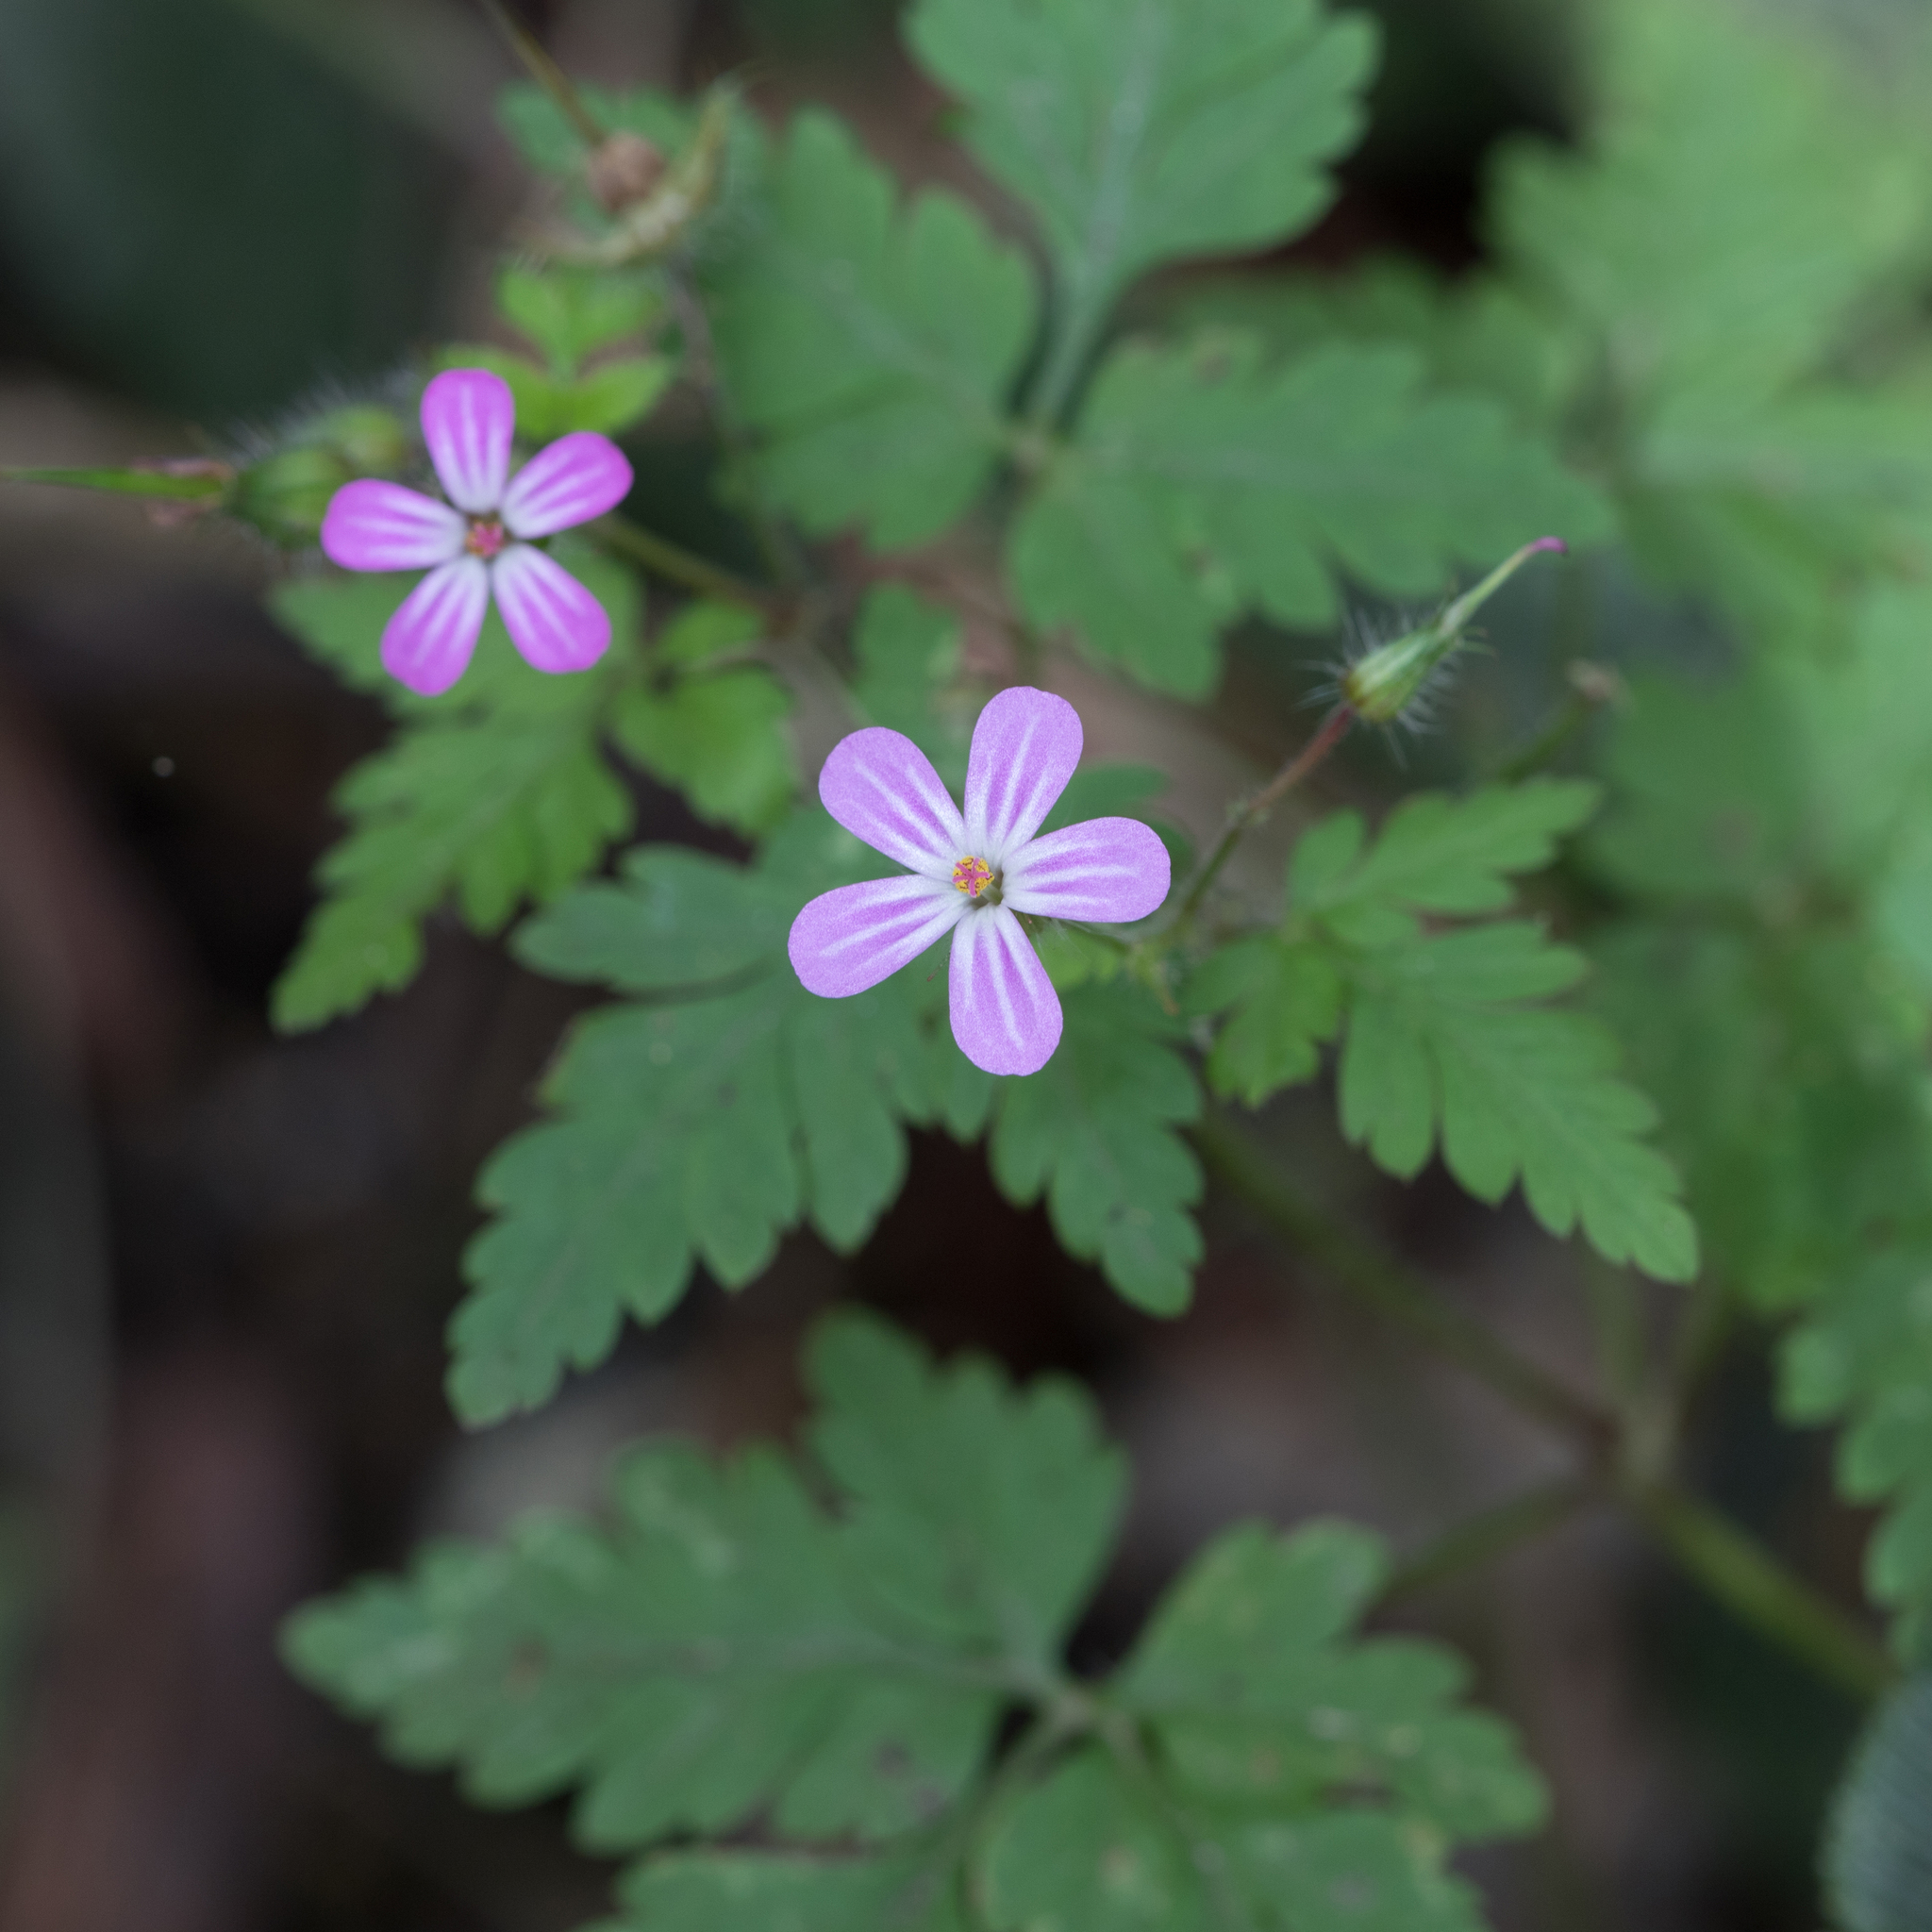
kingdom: Plantae
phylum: Tracheophyta
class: Magnoliopsida
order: Geraniales
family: Geraniaceae
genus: Geranium
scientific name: Geranium robertianum
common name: Herb-robert
